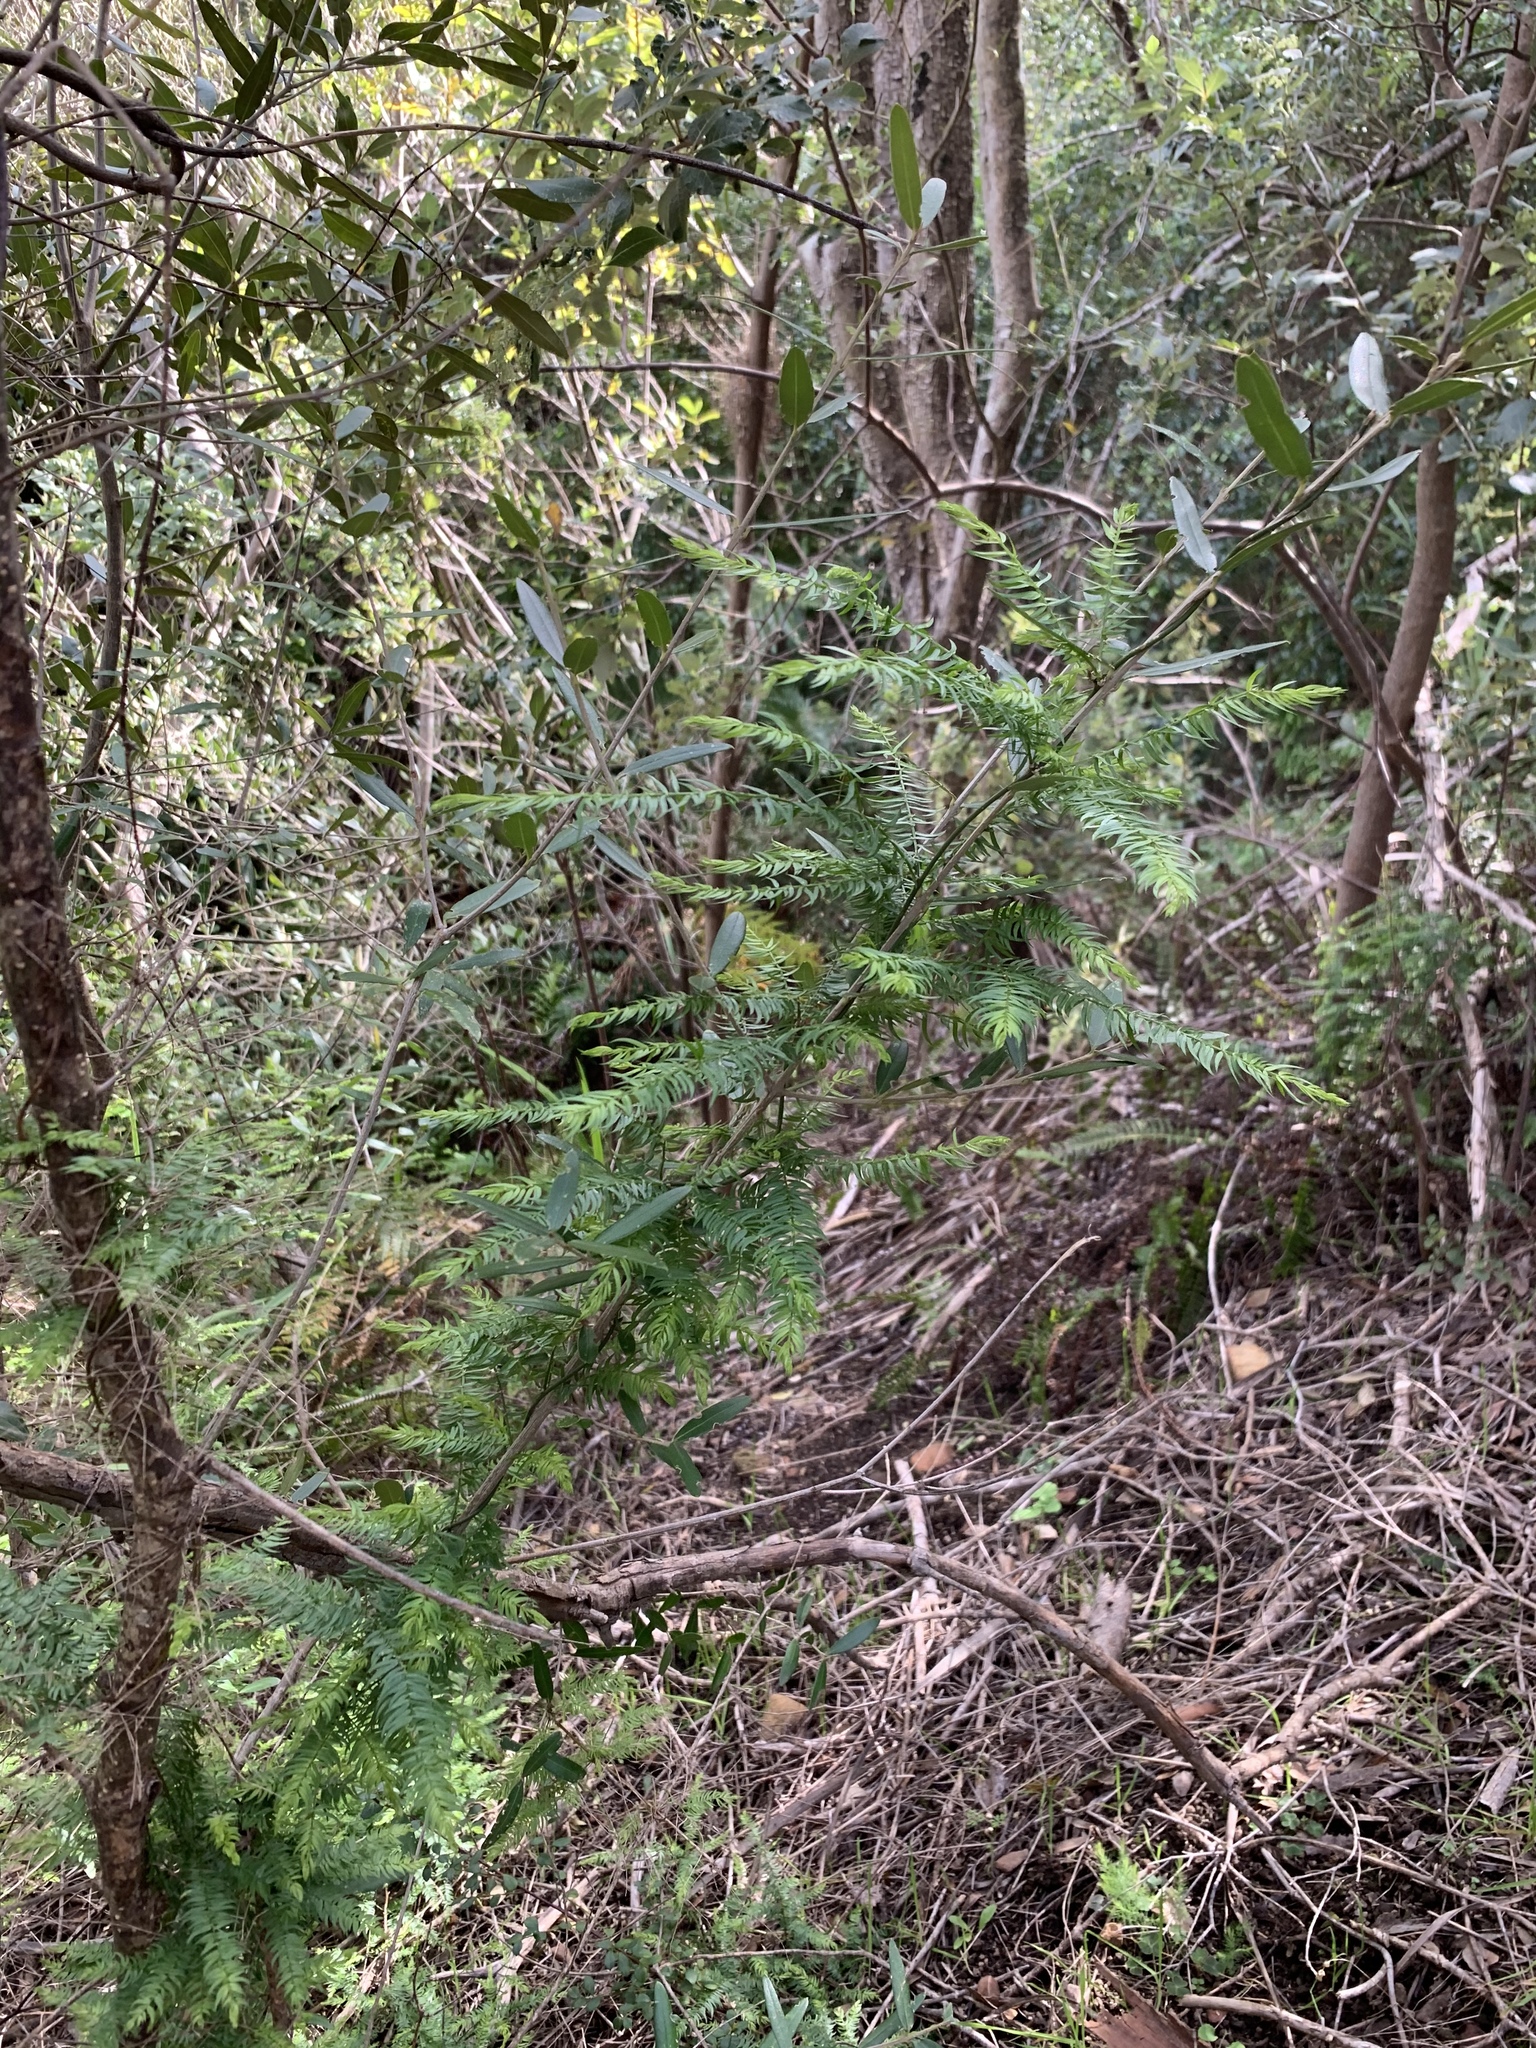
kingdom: Plantae
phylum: Tracheophyta
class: Liliopsida
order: Asparagales
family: Asparagaceae
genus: Asparagus
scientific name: Asparagus scandens
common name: Asparagus-fern
